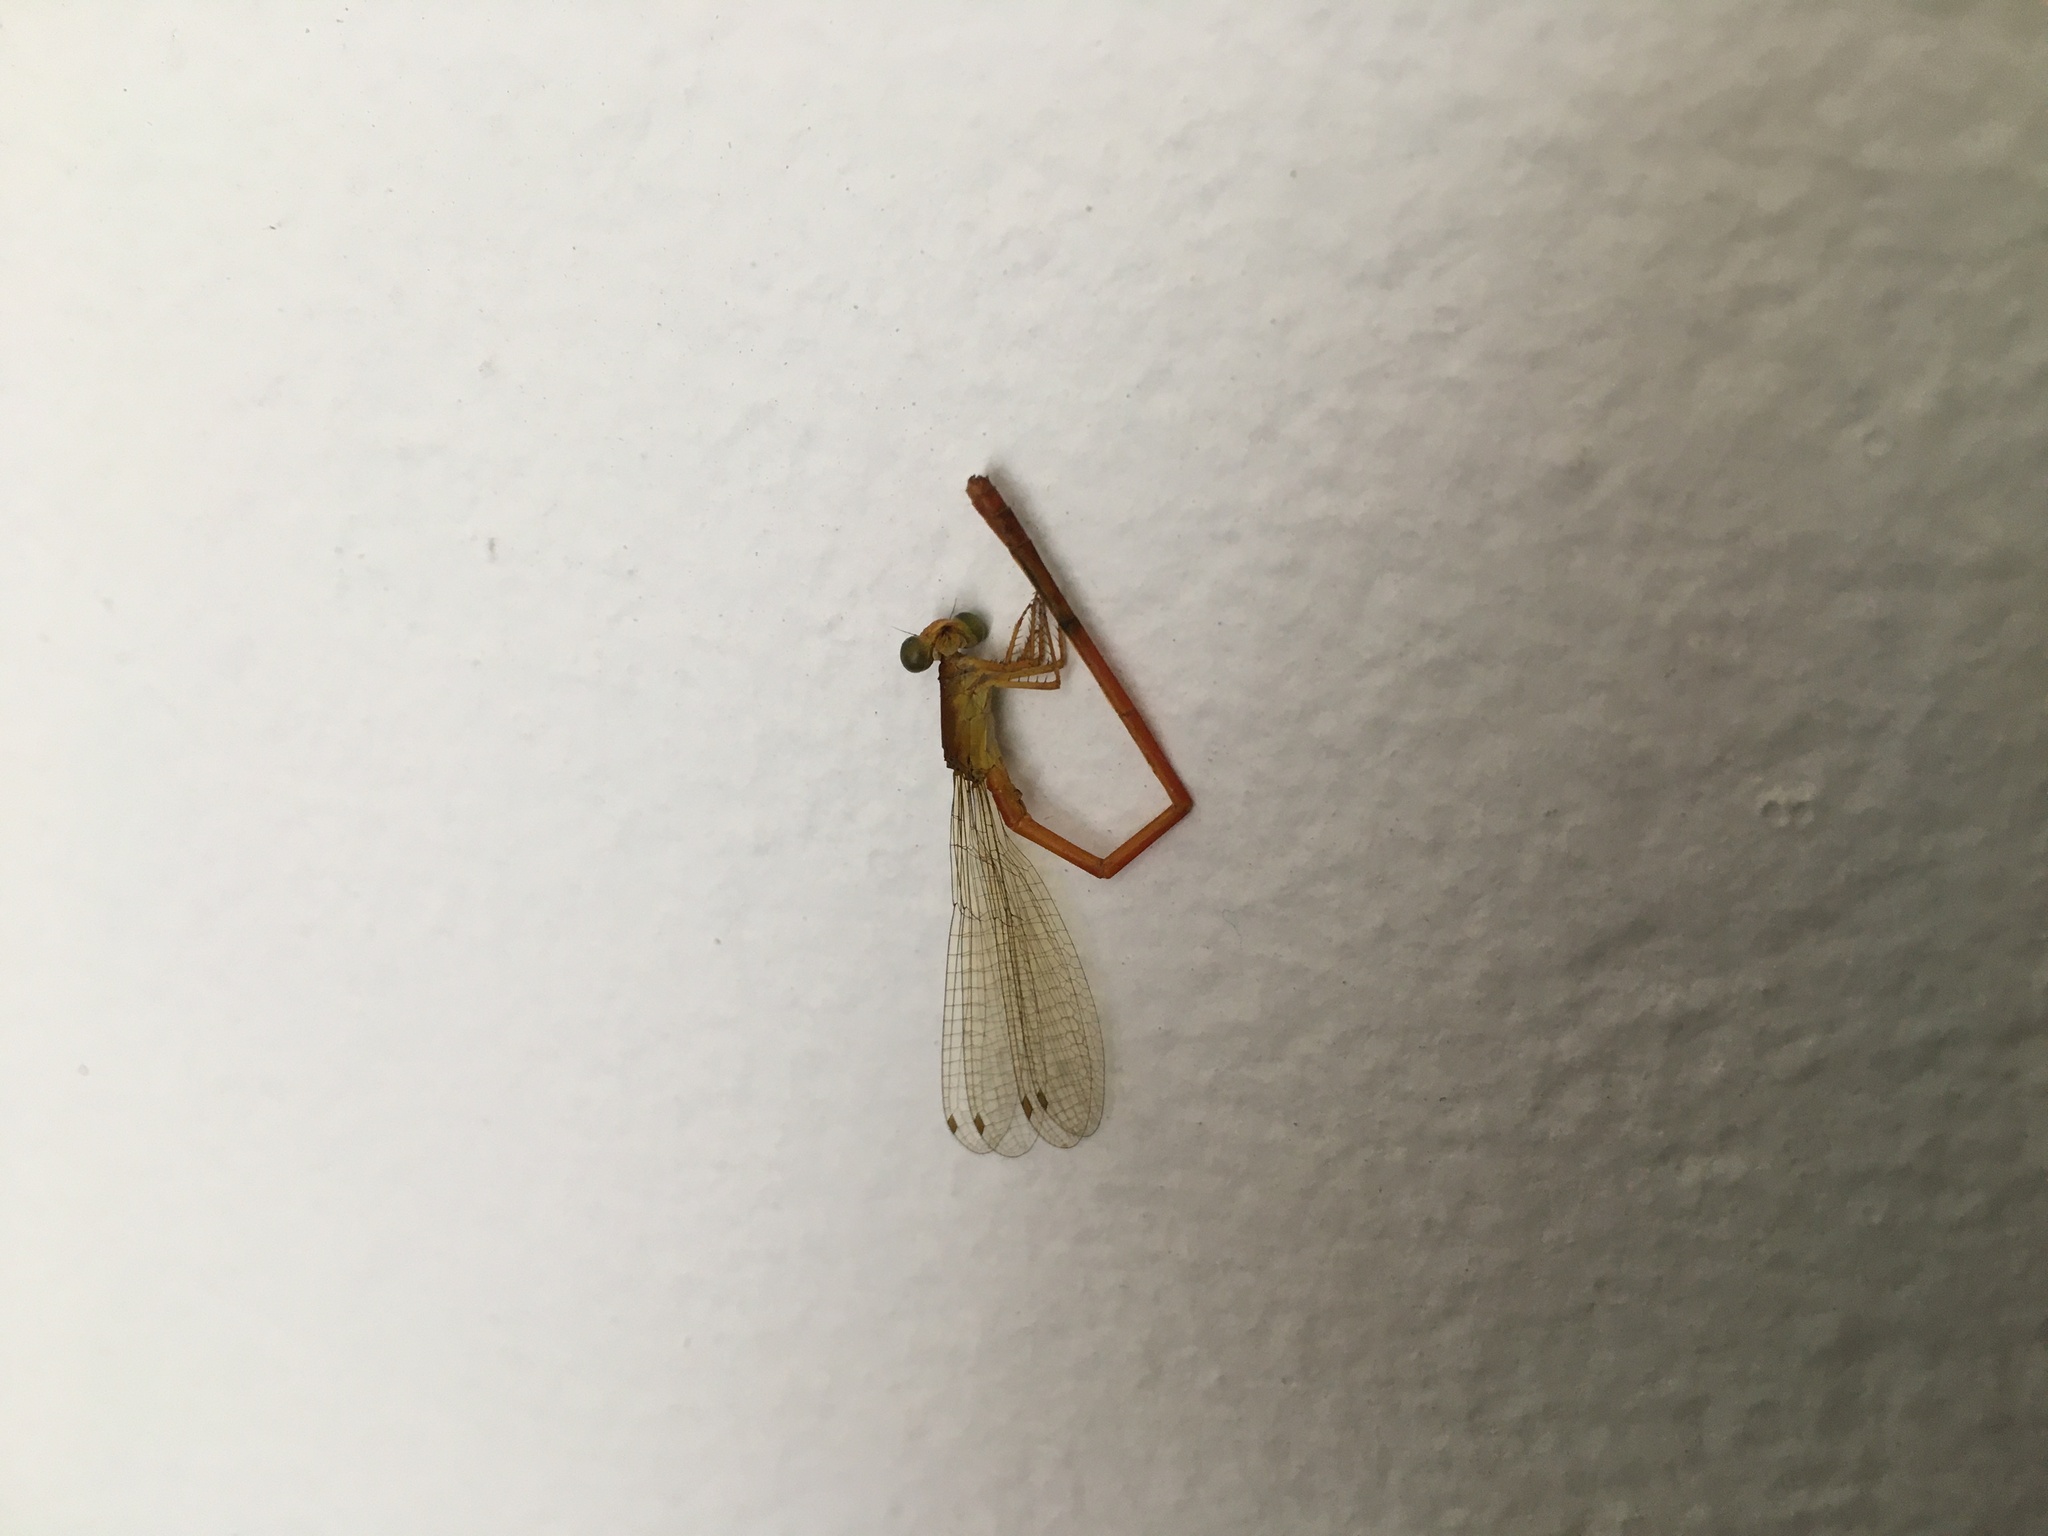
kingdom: Animalia
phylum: Arthropoda
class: Insecta
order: Odonata
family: Coenagrionidae
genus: Ceriagrion
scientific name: Ceriagrion glabrum
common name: Common pond damsel
